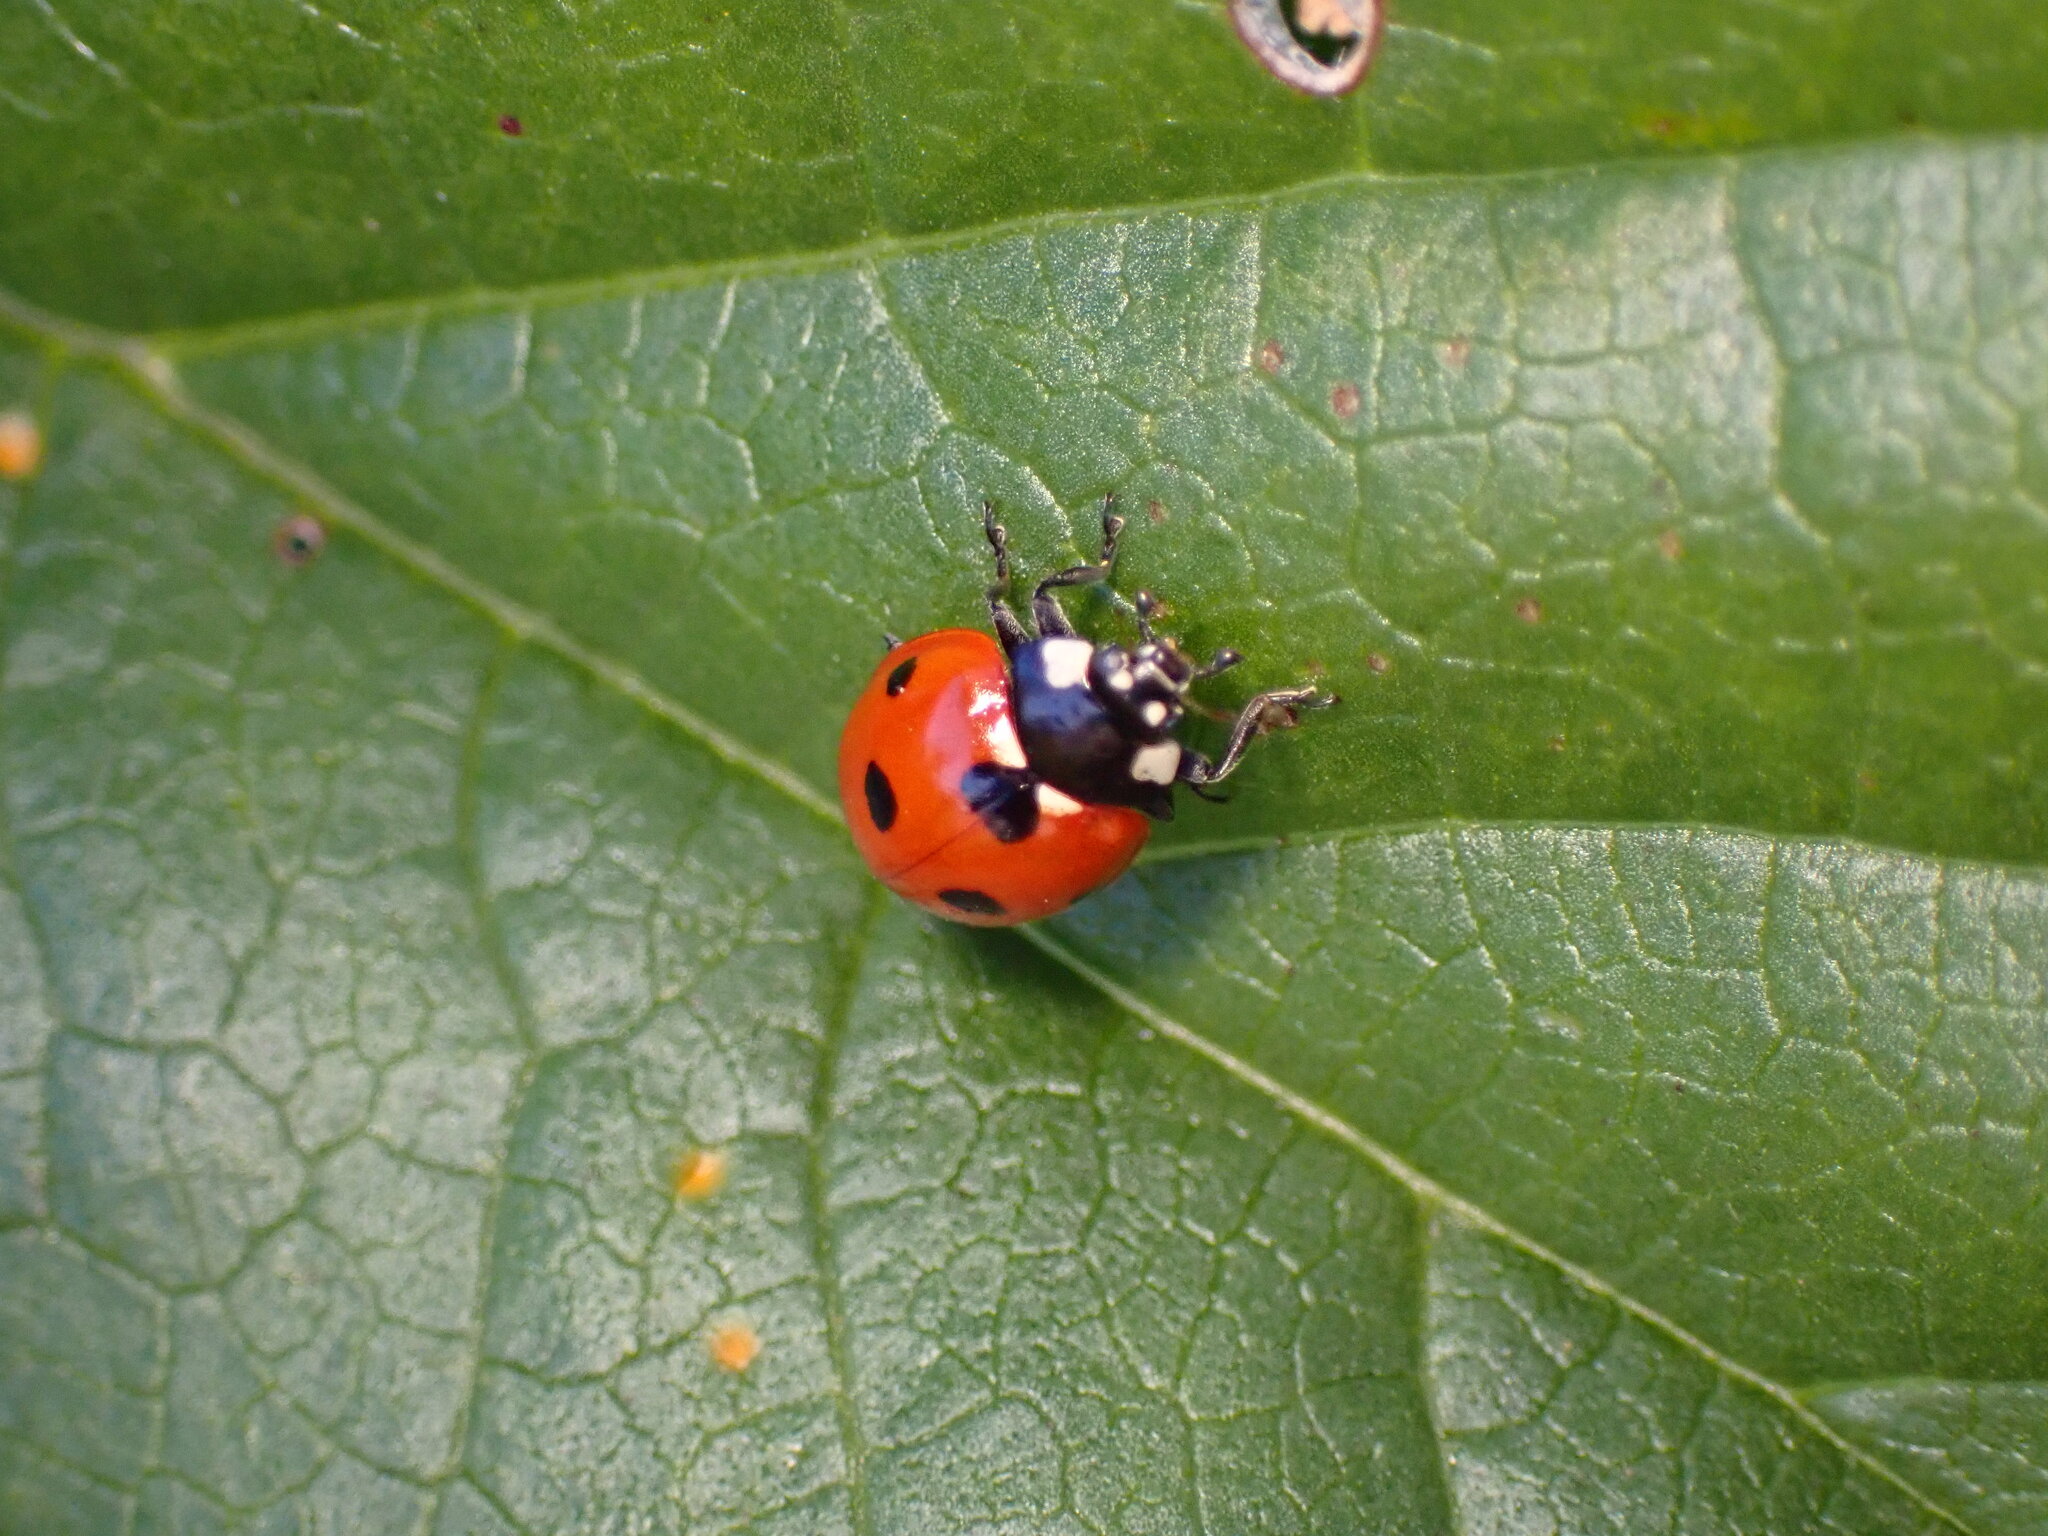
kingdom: Animalia
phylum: Arthropoda
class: Insecta
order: Coleoptera
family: Coccinellidae
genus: Coccinella
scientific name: Coccinella septempunctata
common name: Sevenspotted lady beetle
